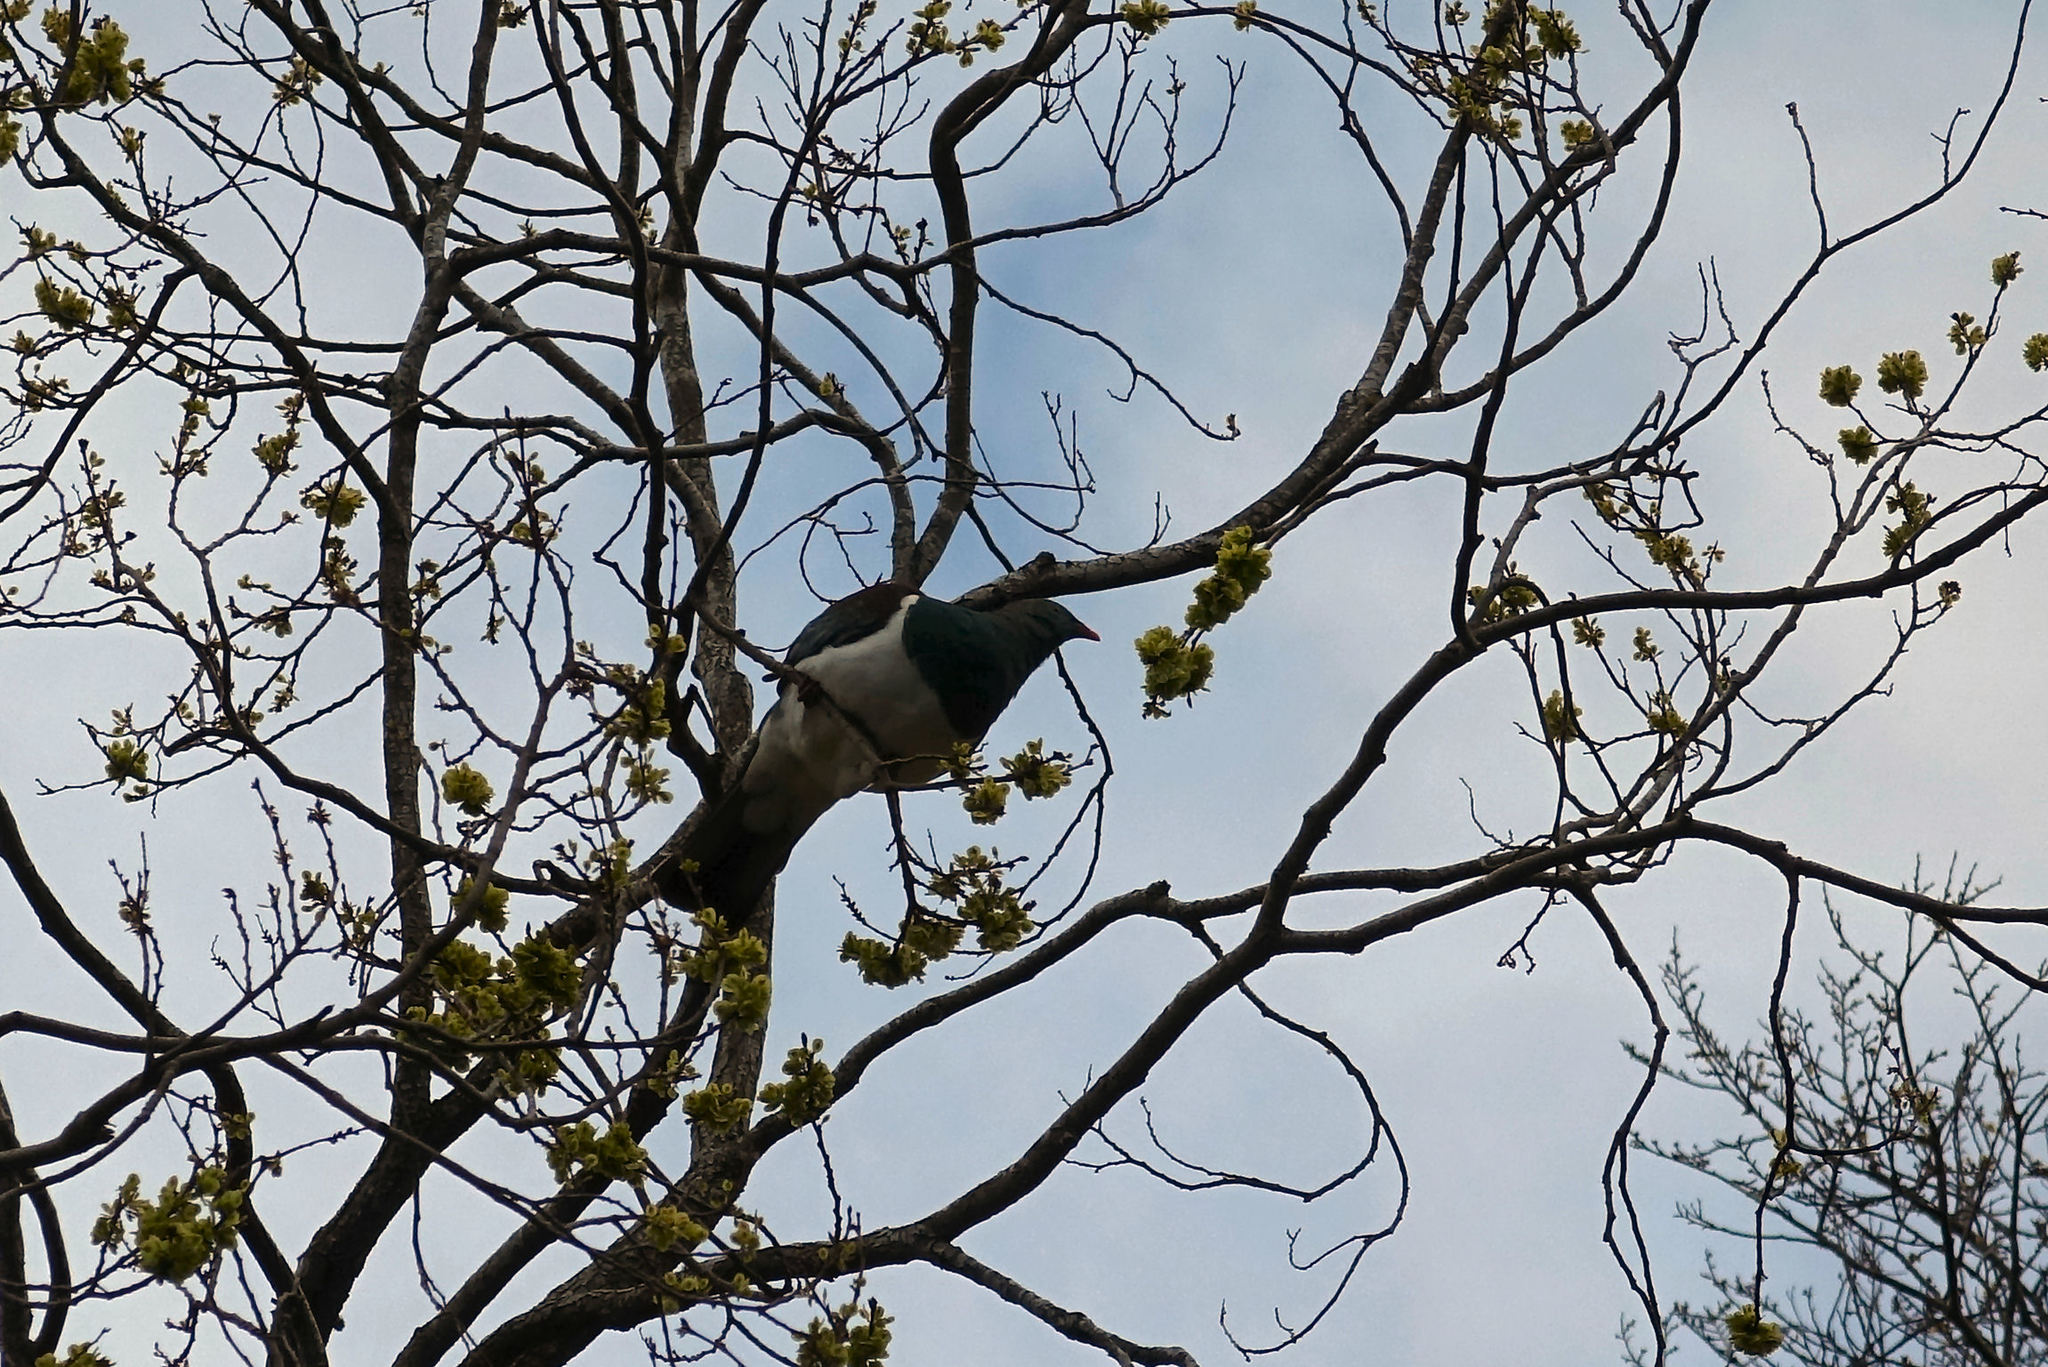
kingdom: Animalia
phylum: Chordata
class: Aves
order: Columbiformes
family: Columbidae
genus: Hemiphaga
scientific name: Hemiphaga novaeseelandiae
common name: New zealand pigeon
